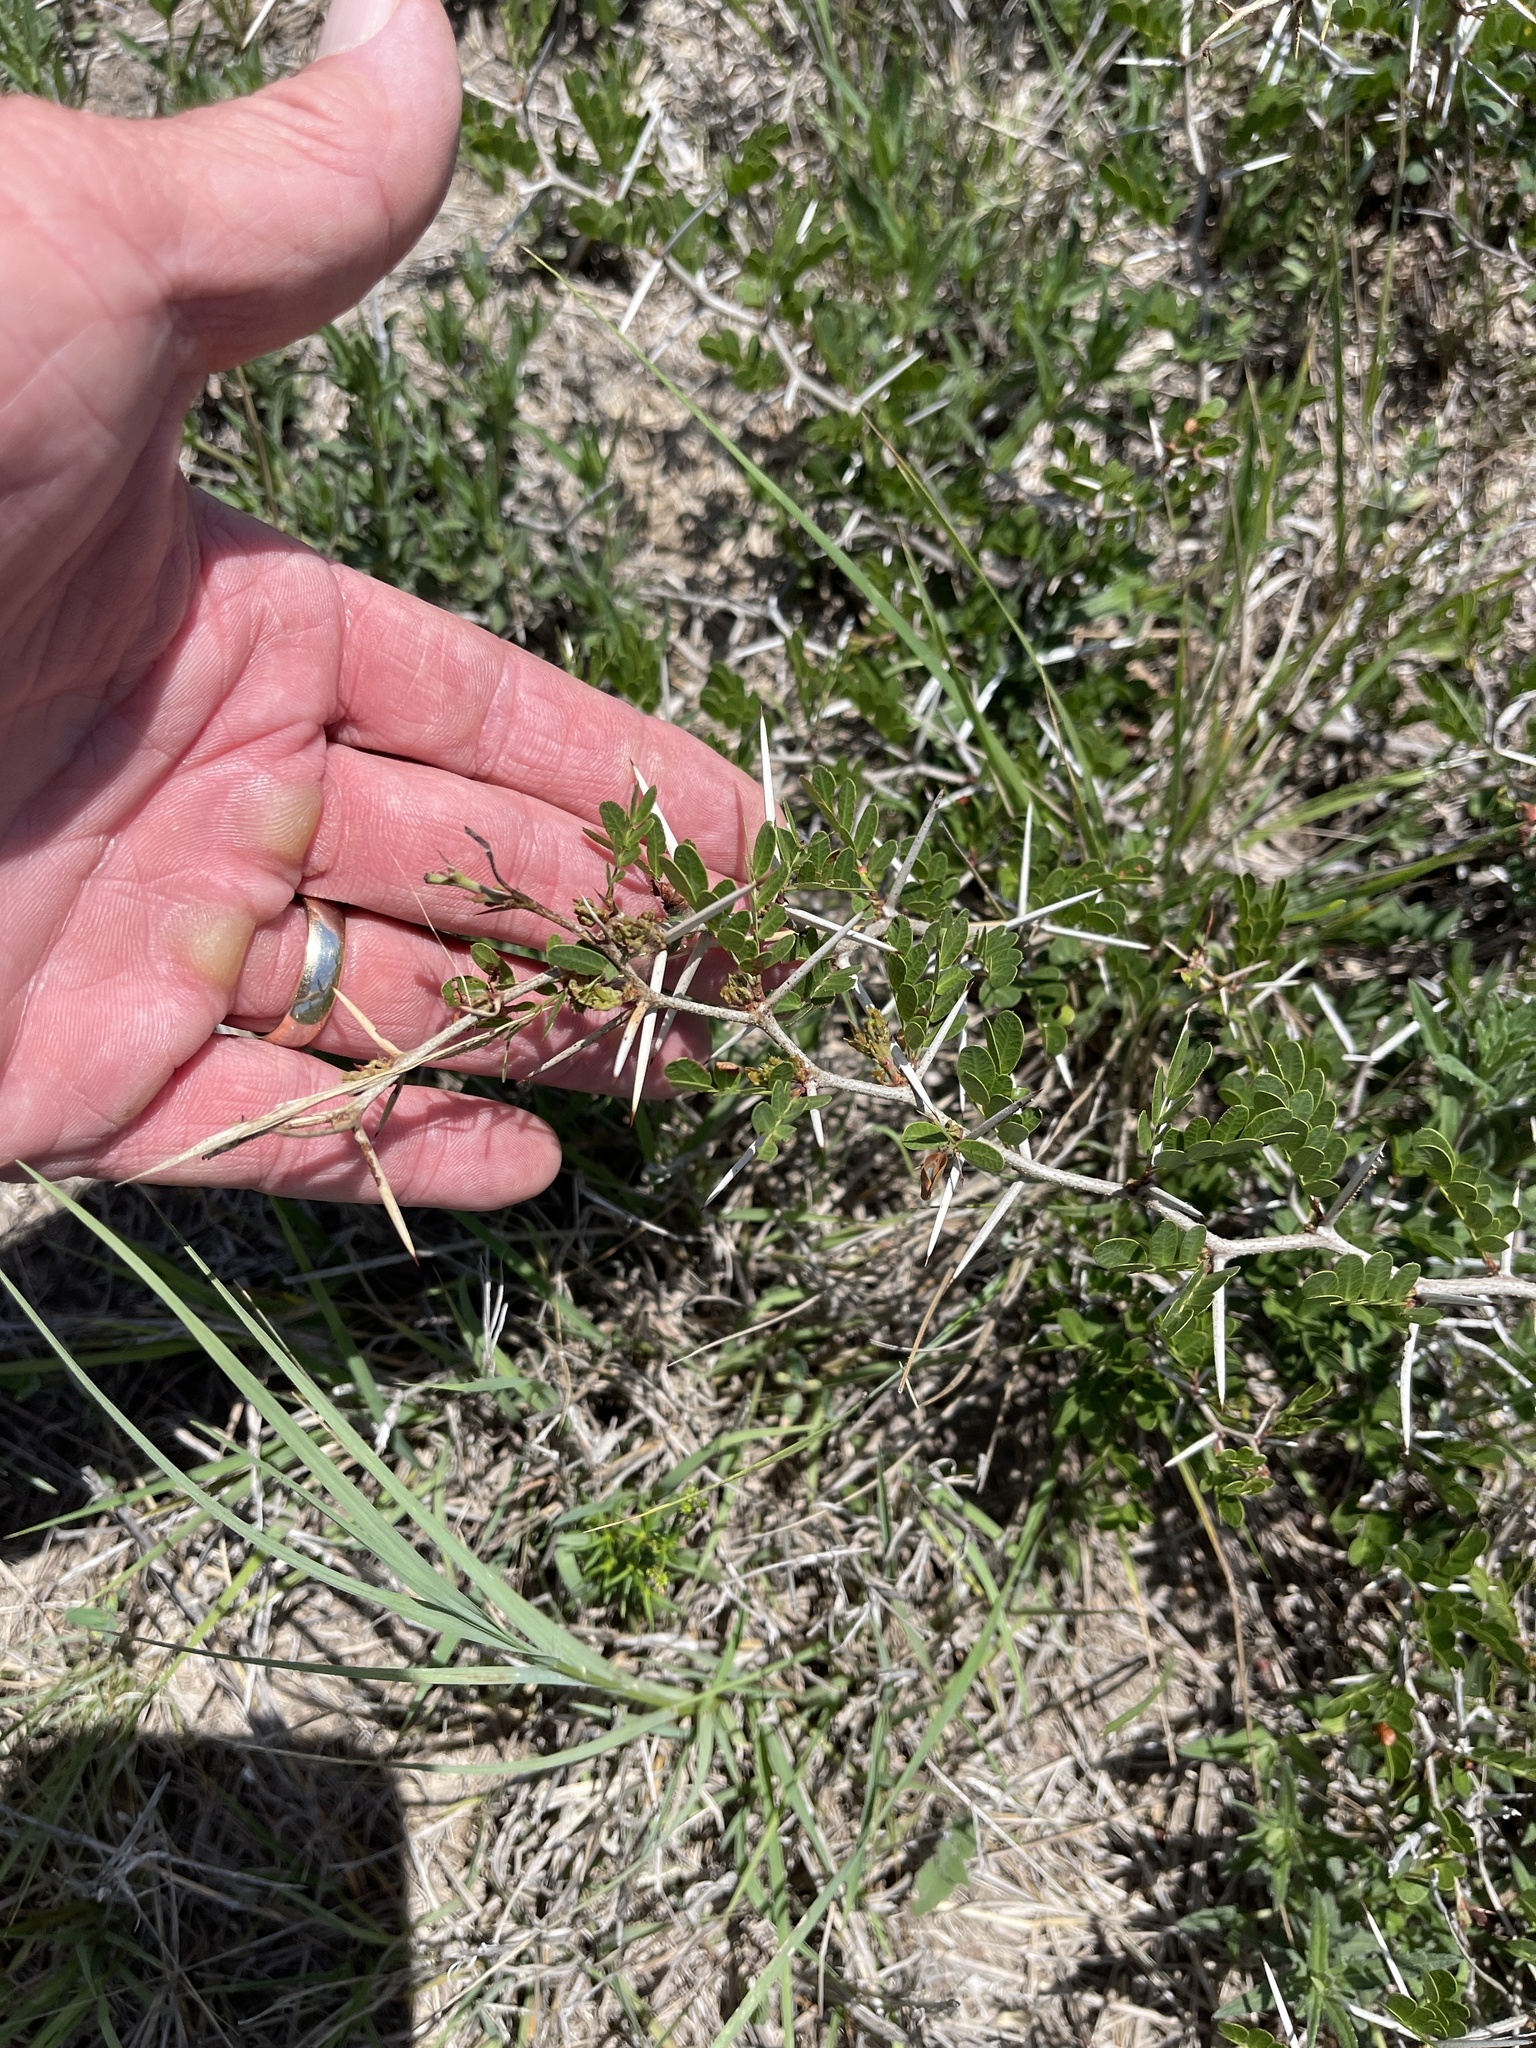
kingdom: Plantae
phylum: Tracheophyta
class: Magnoliopsida
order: Fabales
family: Fabaceae
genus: Vachellia
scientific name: Vachellia rigidula
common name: Blackbrush
